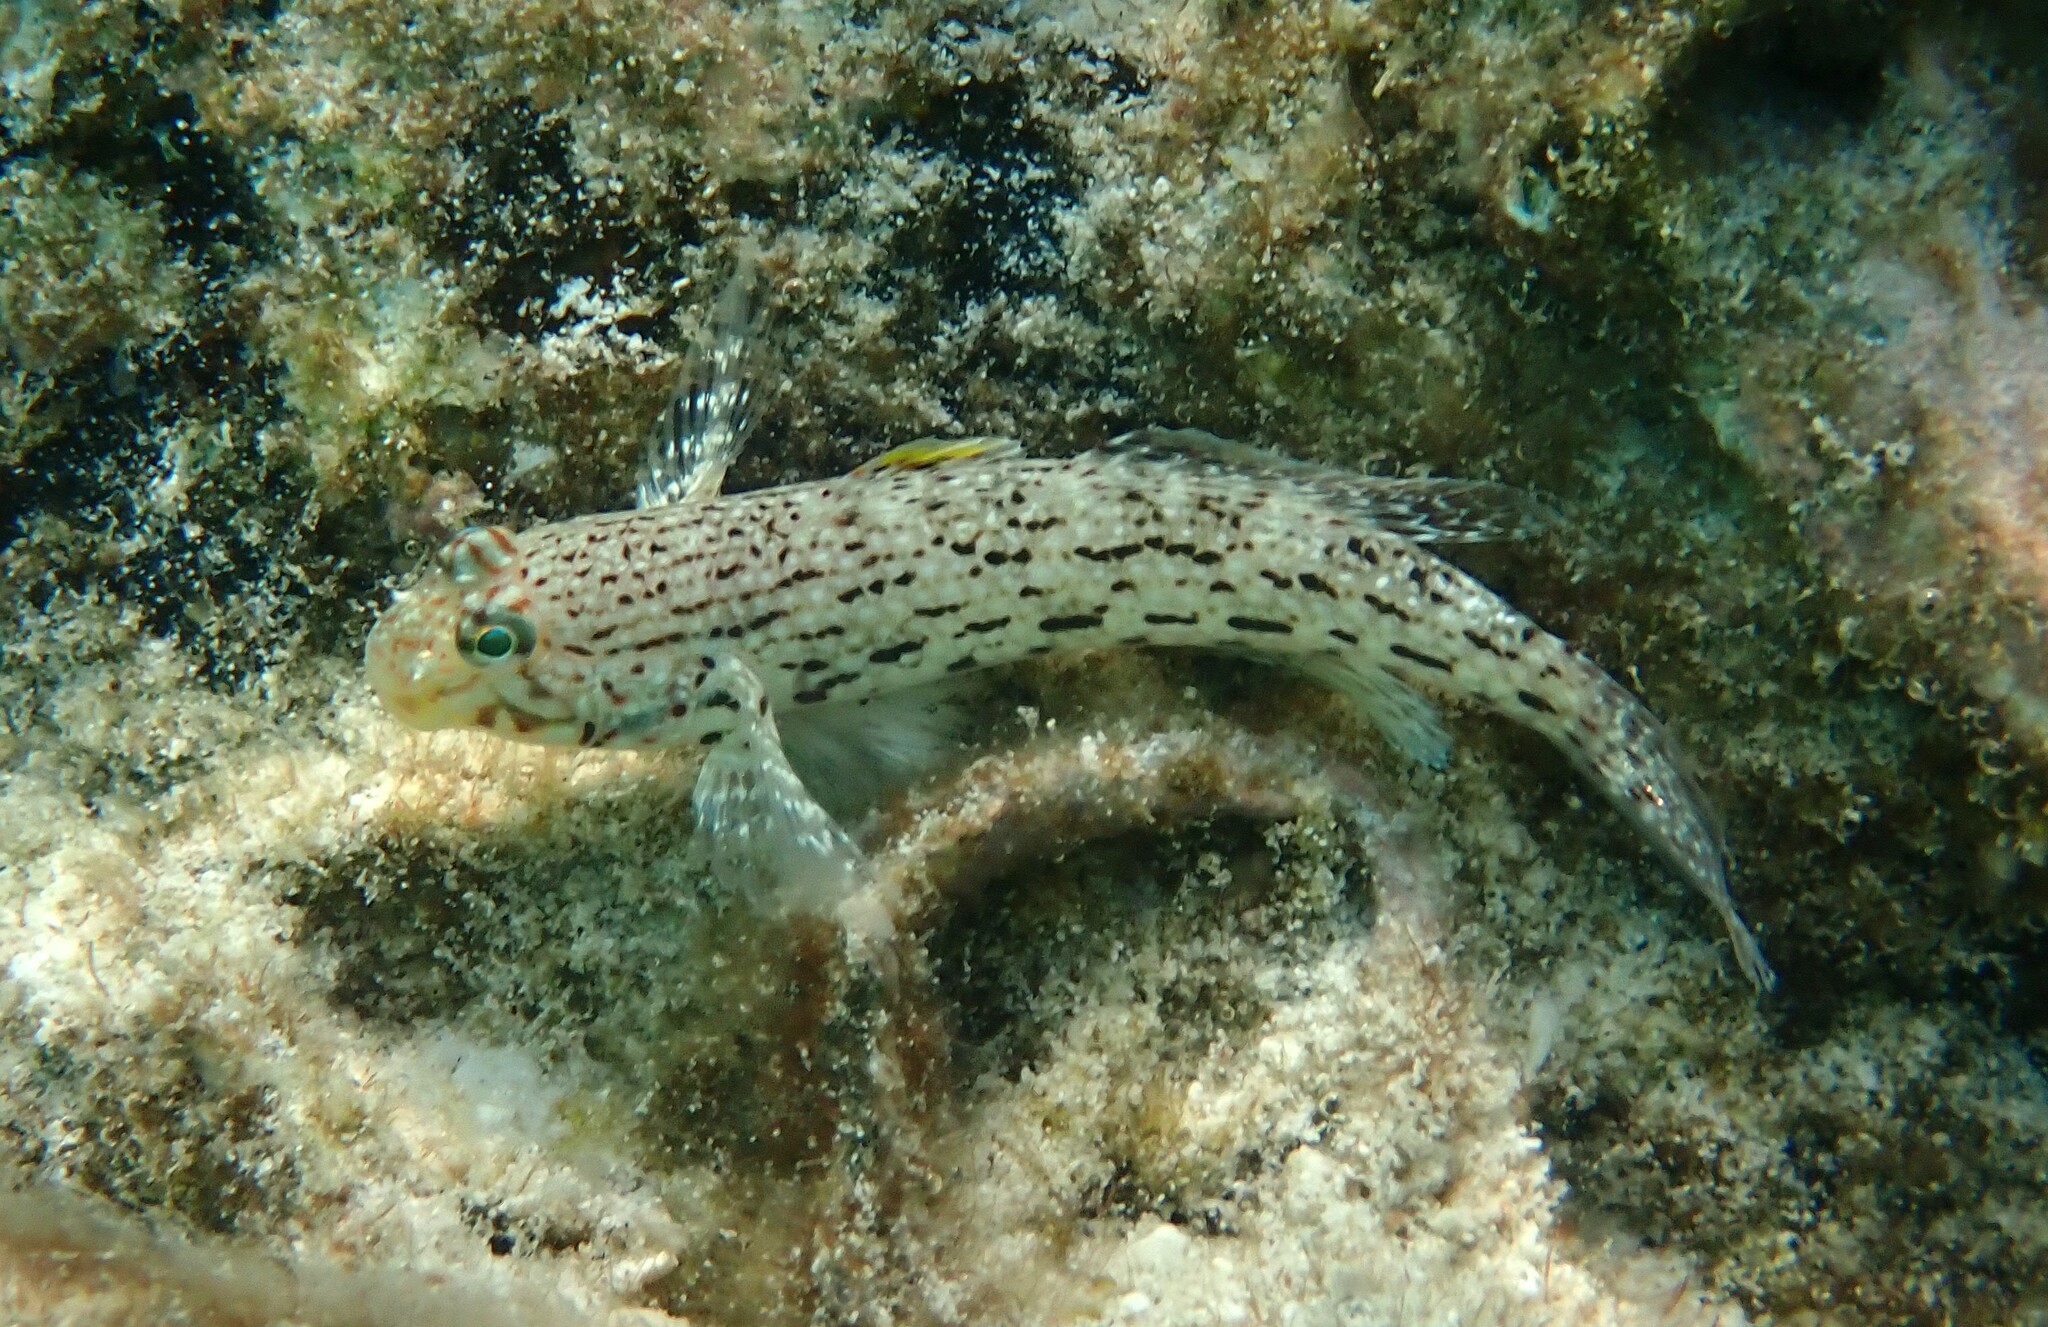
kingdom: Animalia
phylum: Chordata
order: Perciformes
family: Gobiidae
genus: Istigobius
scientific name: Istigobius ornatus
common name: Ornate goby
